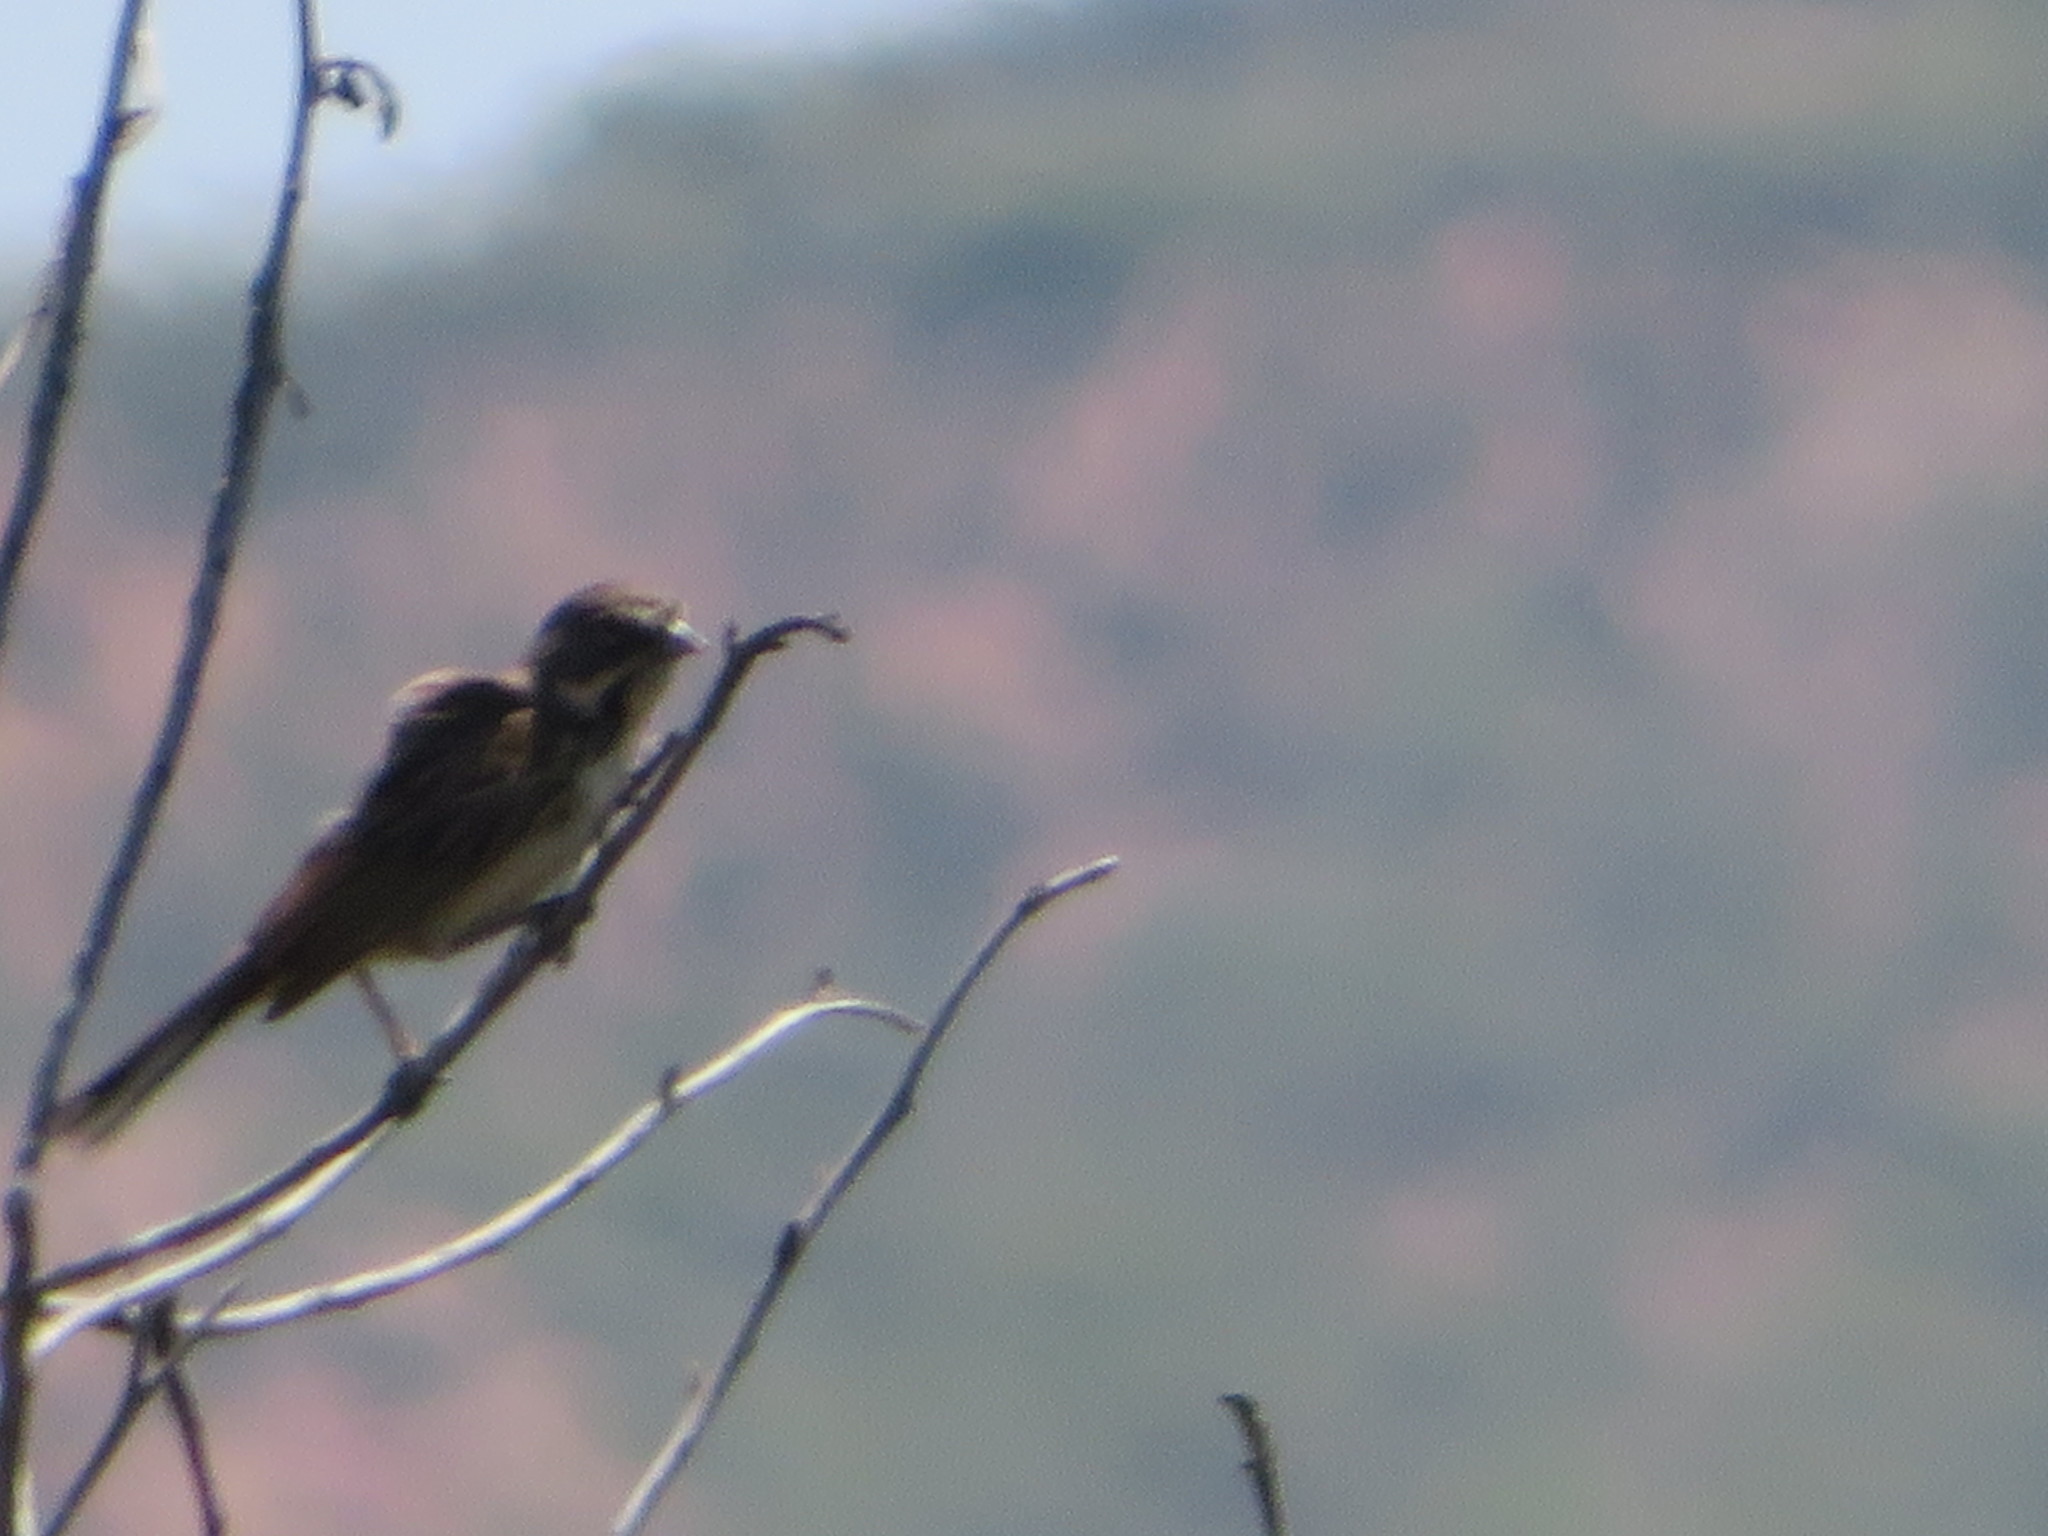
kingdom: Animalia
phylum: Chordata
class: Aves
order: Passeriformes
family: Passerellidae
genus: Artemisiospiza
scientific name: Artemisiospiza belli
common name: Bell's sparrow
